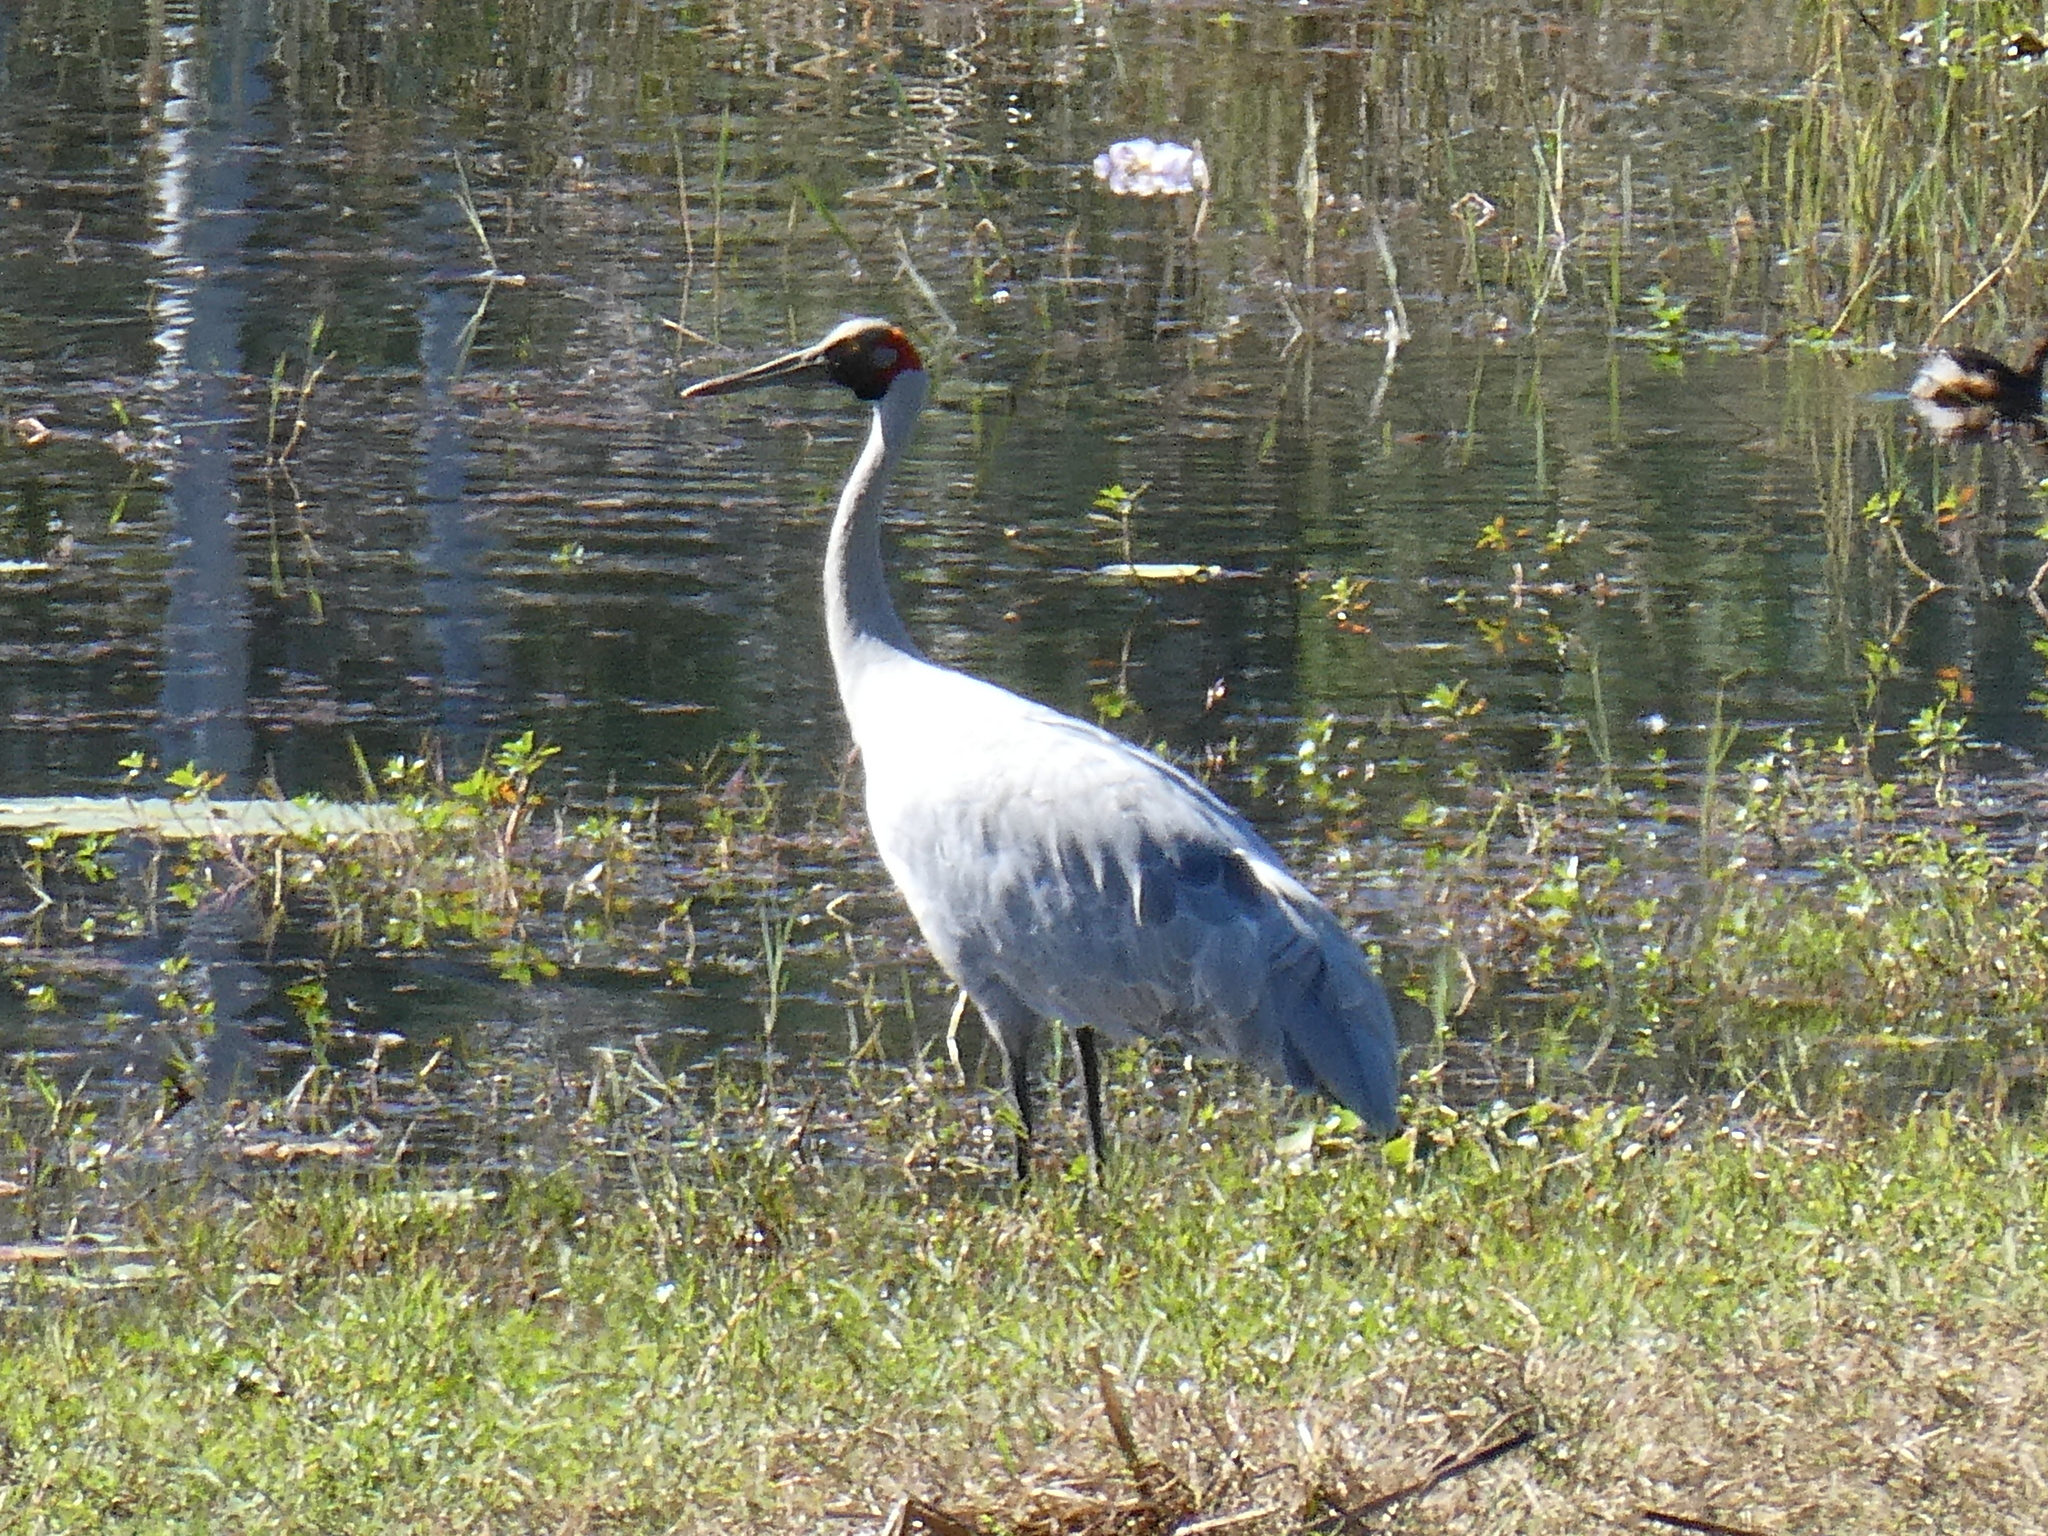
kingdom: Animalia
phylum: Chordata
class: Aves
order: Gruiformes
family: Gruidae
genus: Grus
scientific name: Grus rubicunda
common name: Brolga
